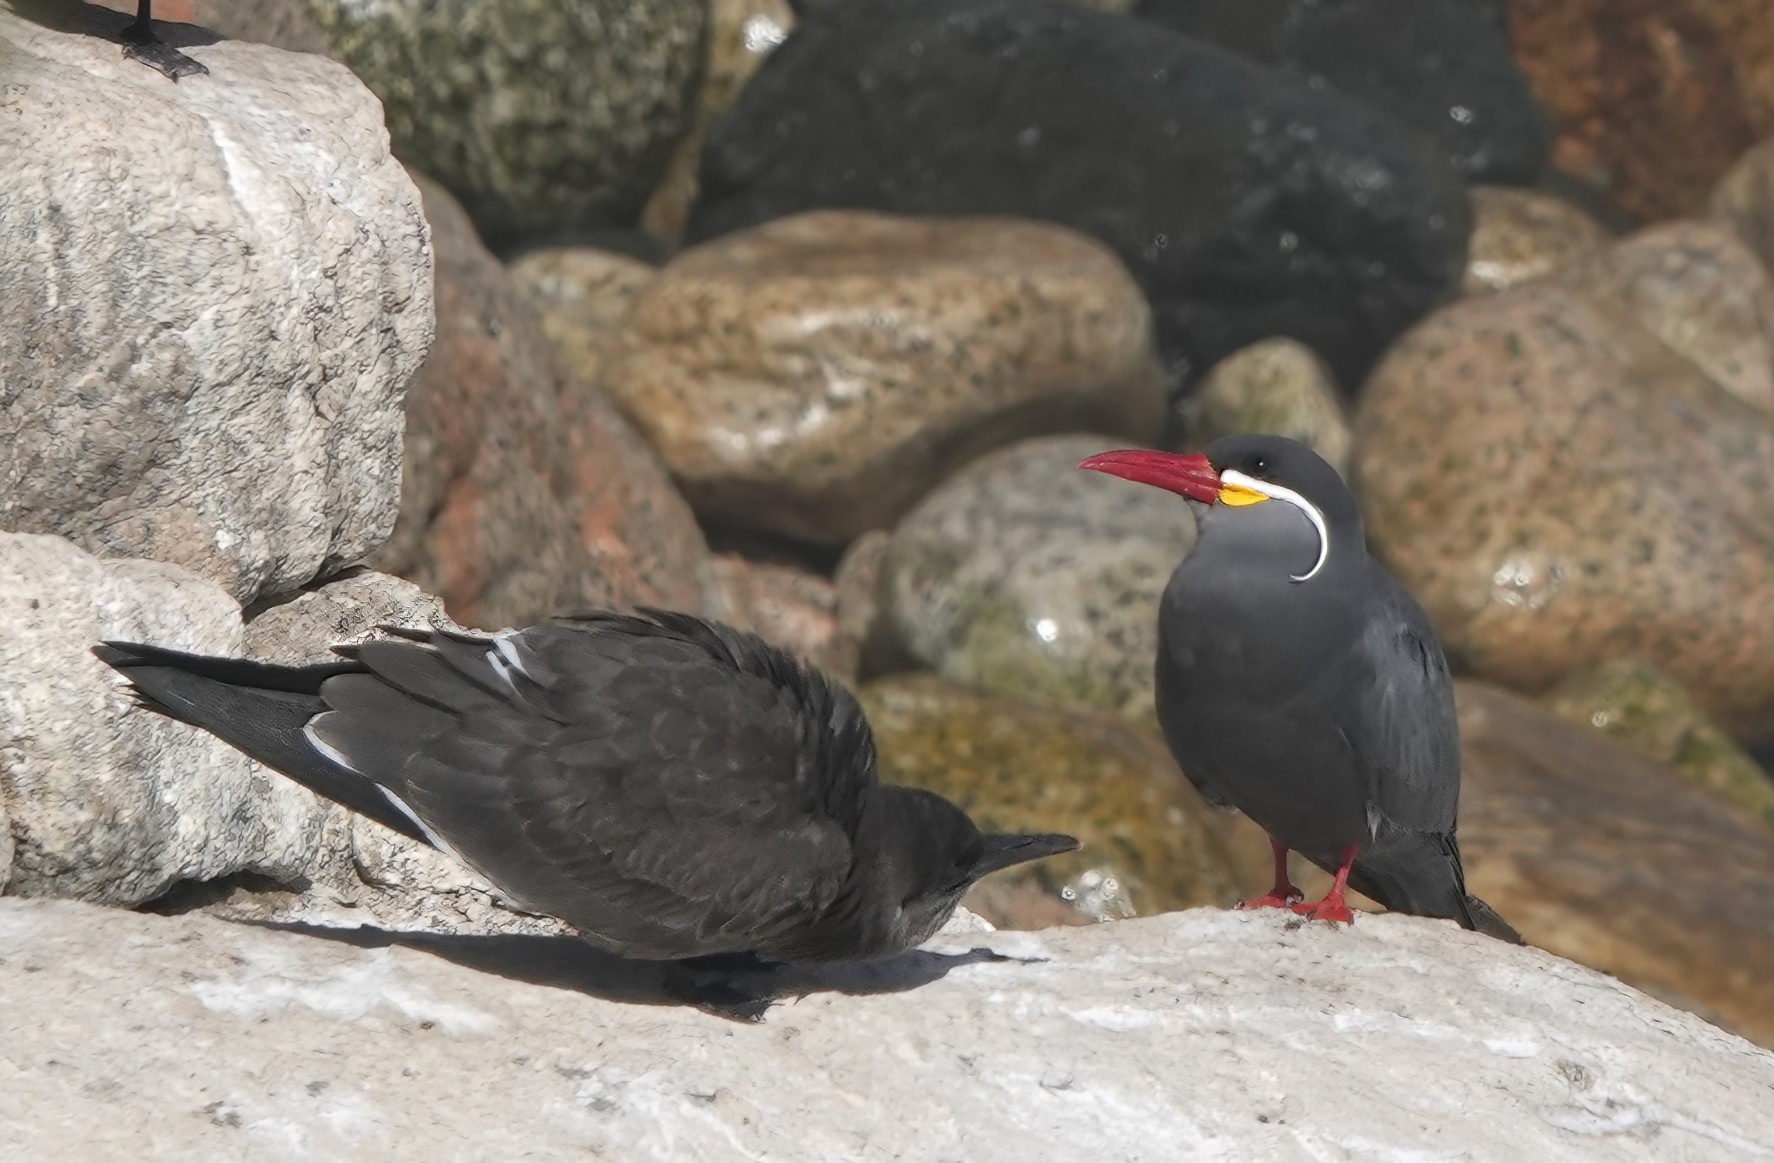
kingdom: Animalia
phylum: Chordata
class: Aves
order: Charadriiformes
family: Laridae
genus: Larosterna
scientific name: Larosterna inca
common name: Inca tern
